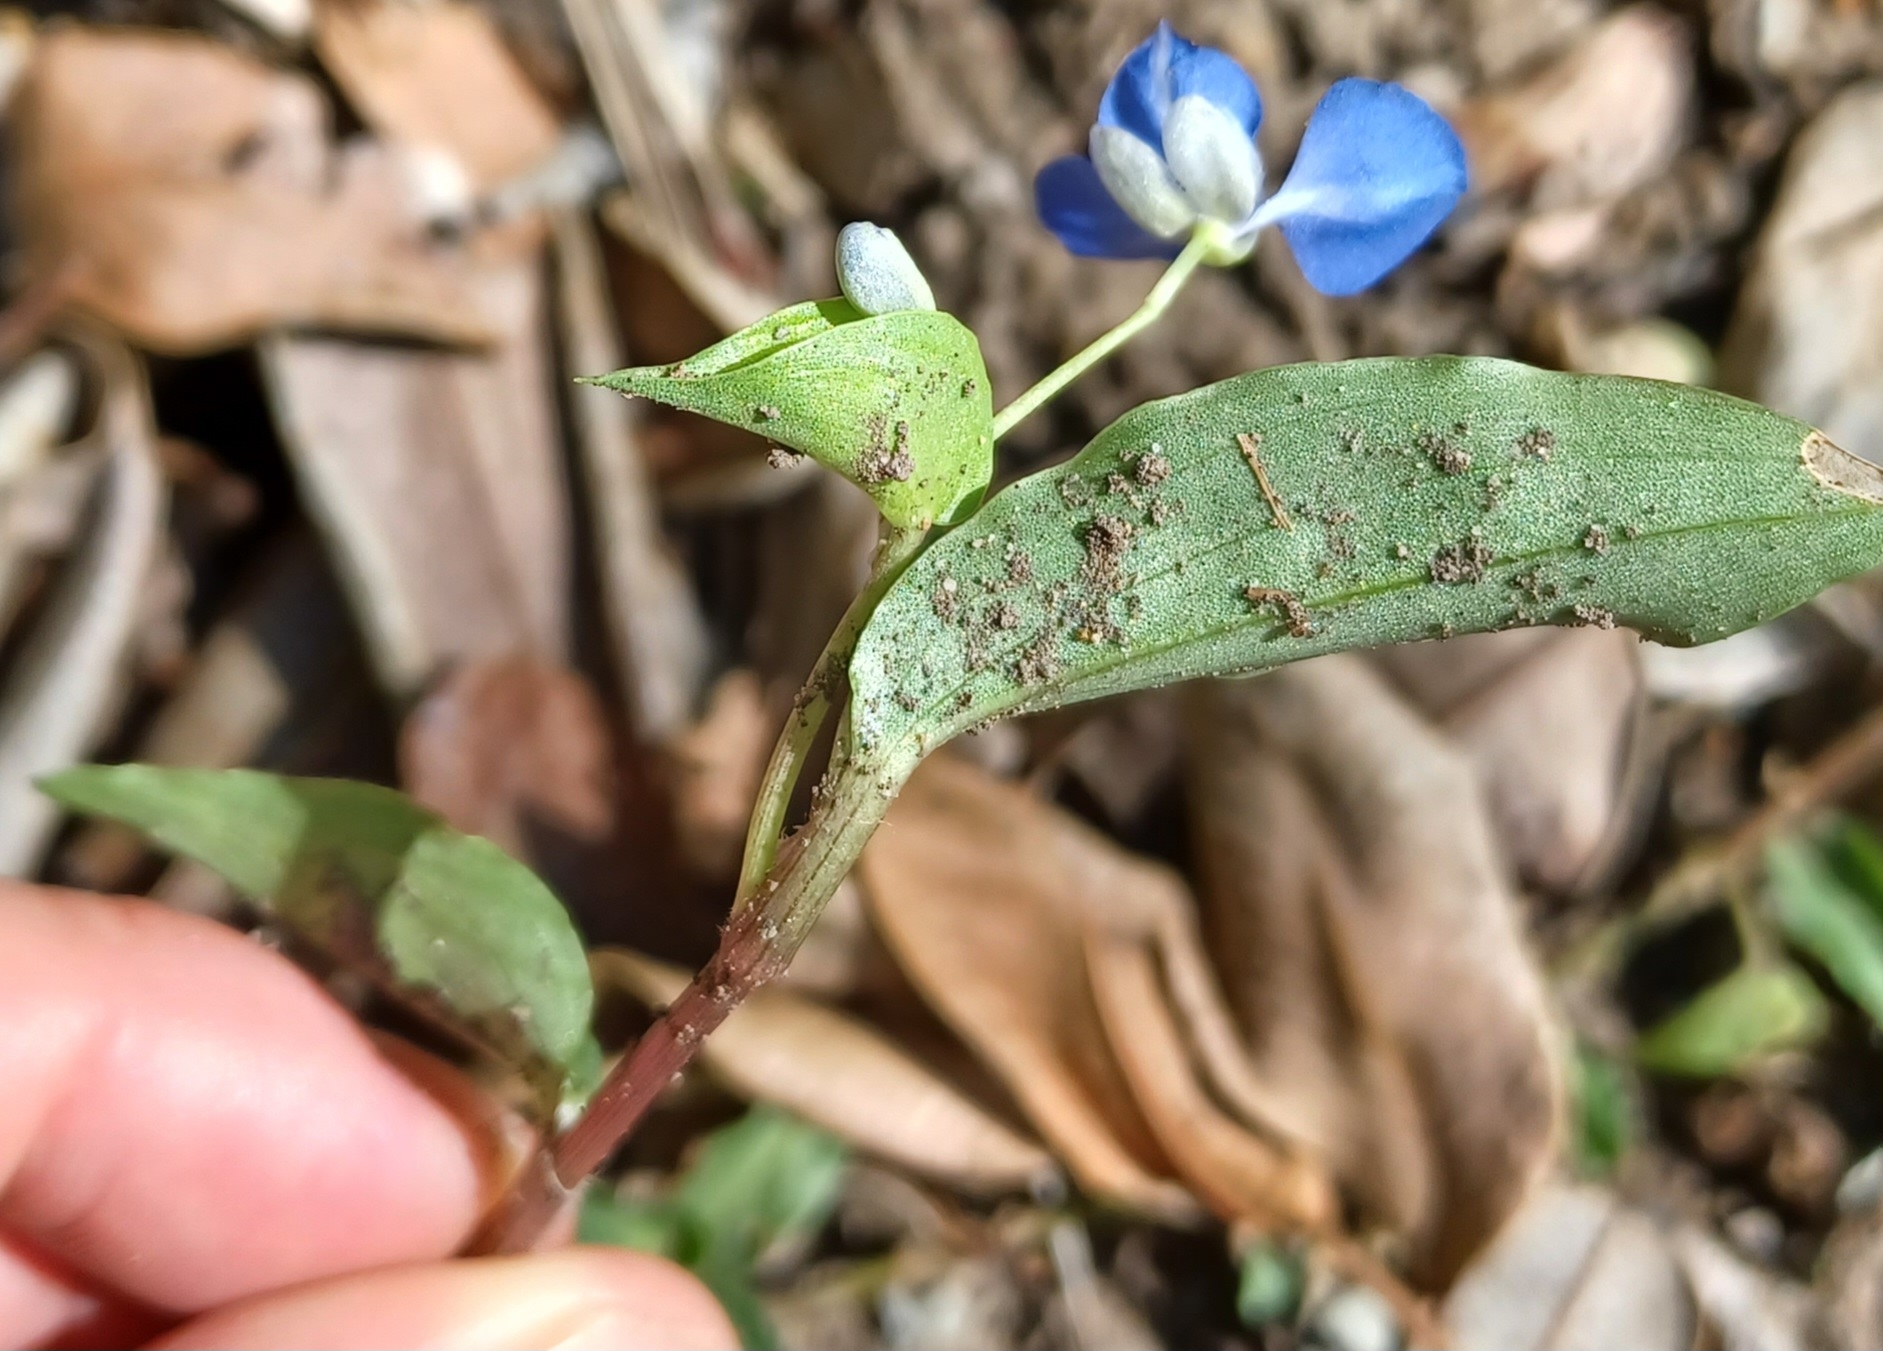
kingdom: Plantae
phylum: Tracheophyta
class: Liliopsida
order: Commelinales
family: Commelinaceae
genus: Commelina
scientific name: Commelina cyanea
